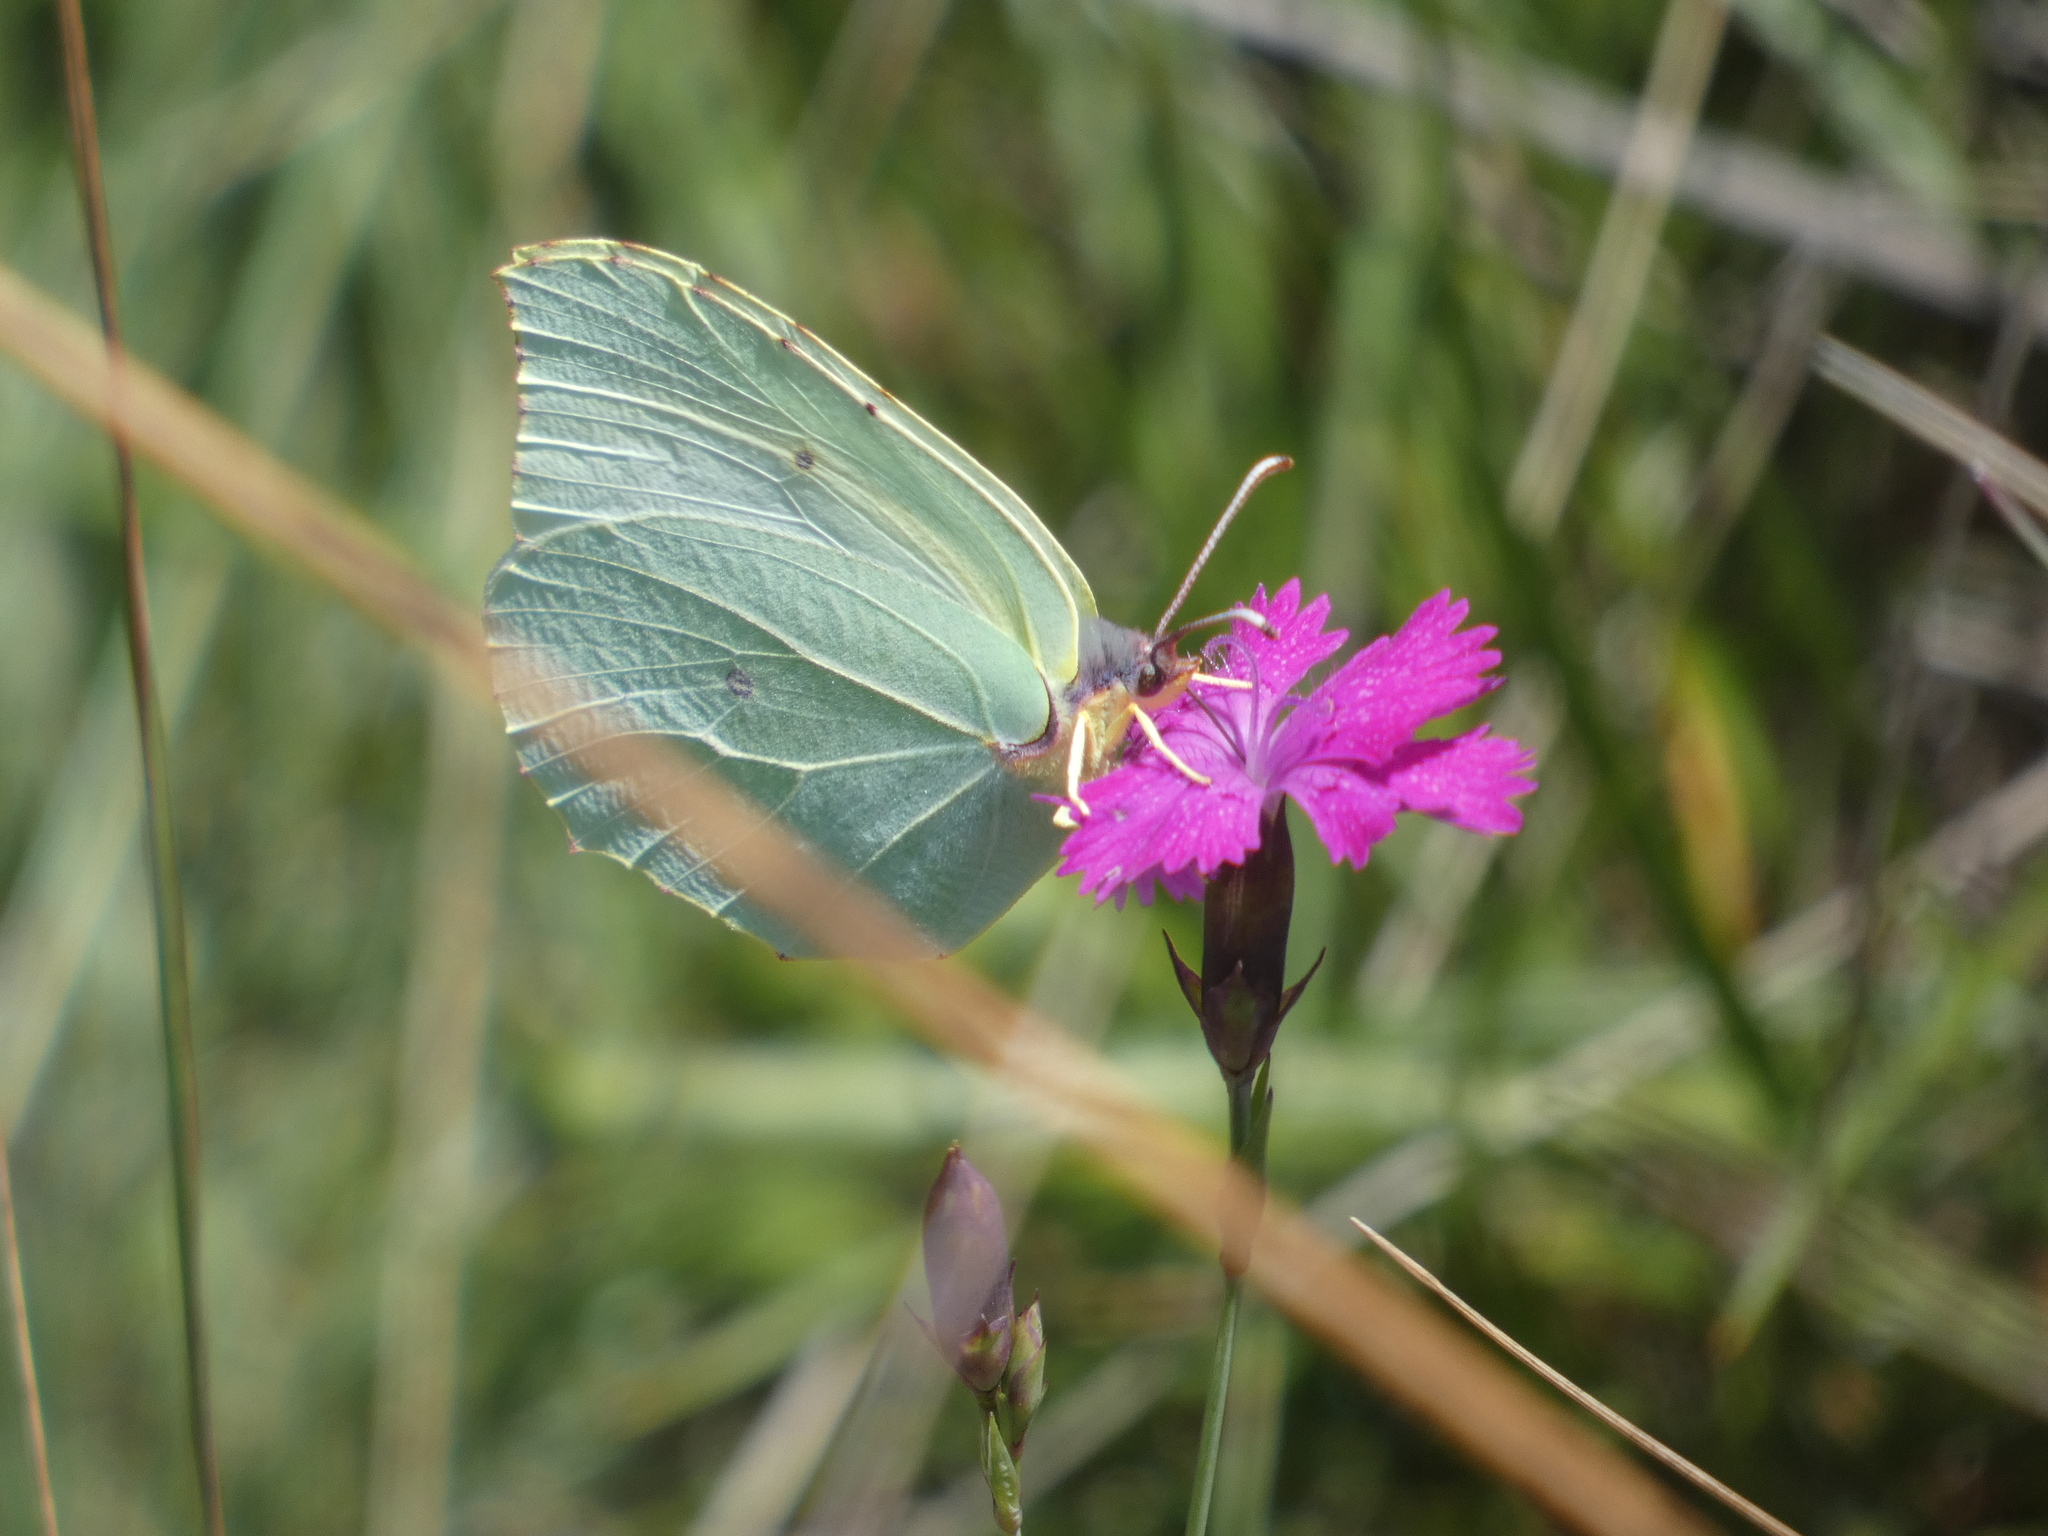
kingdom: Animalia
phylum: Arthropoda
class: Insecta
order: Lepidoptera
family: Pieridae
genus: Gonepteryx
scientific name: Gonepteryx rhamni
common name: Brimstone
